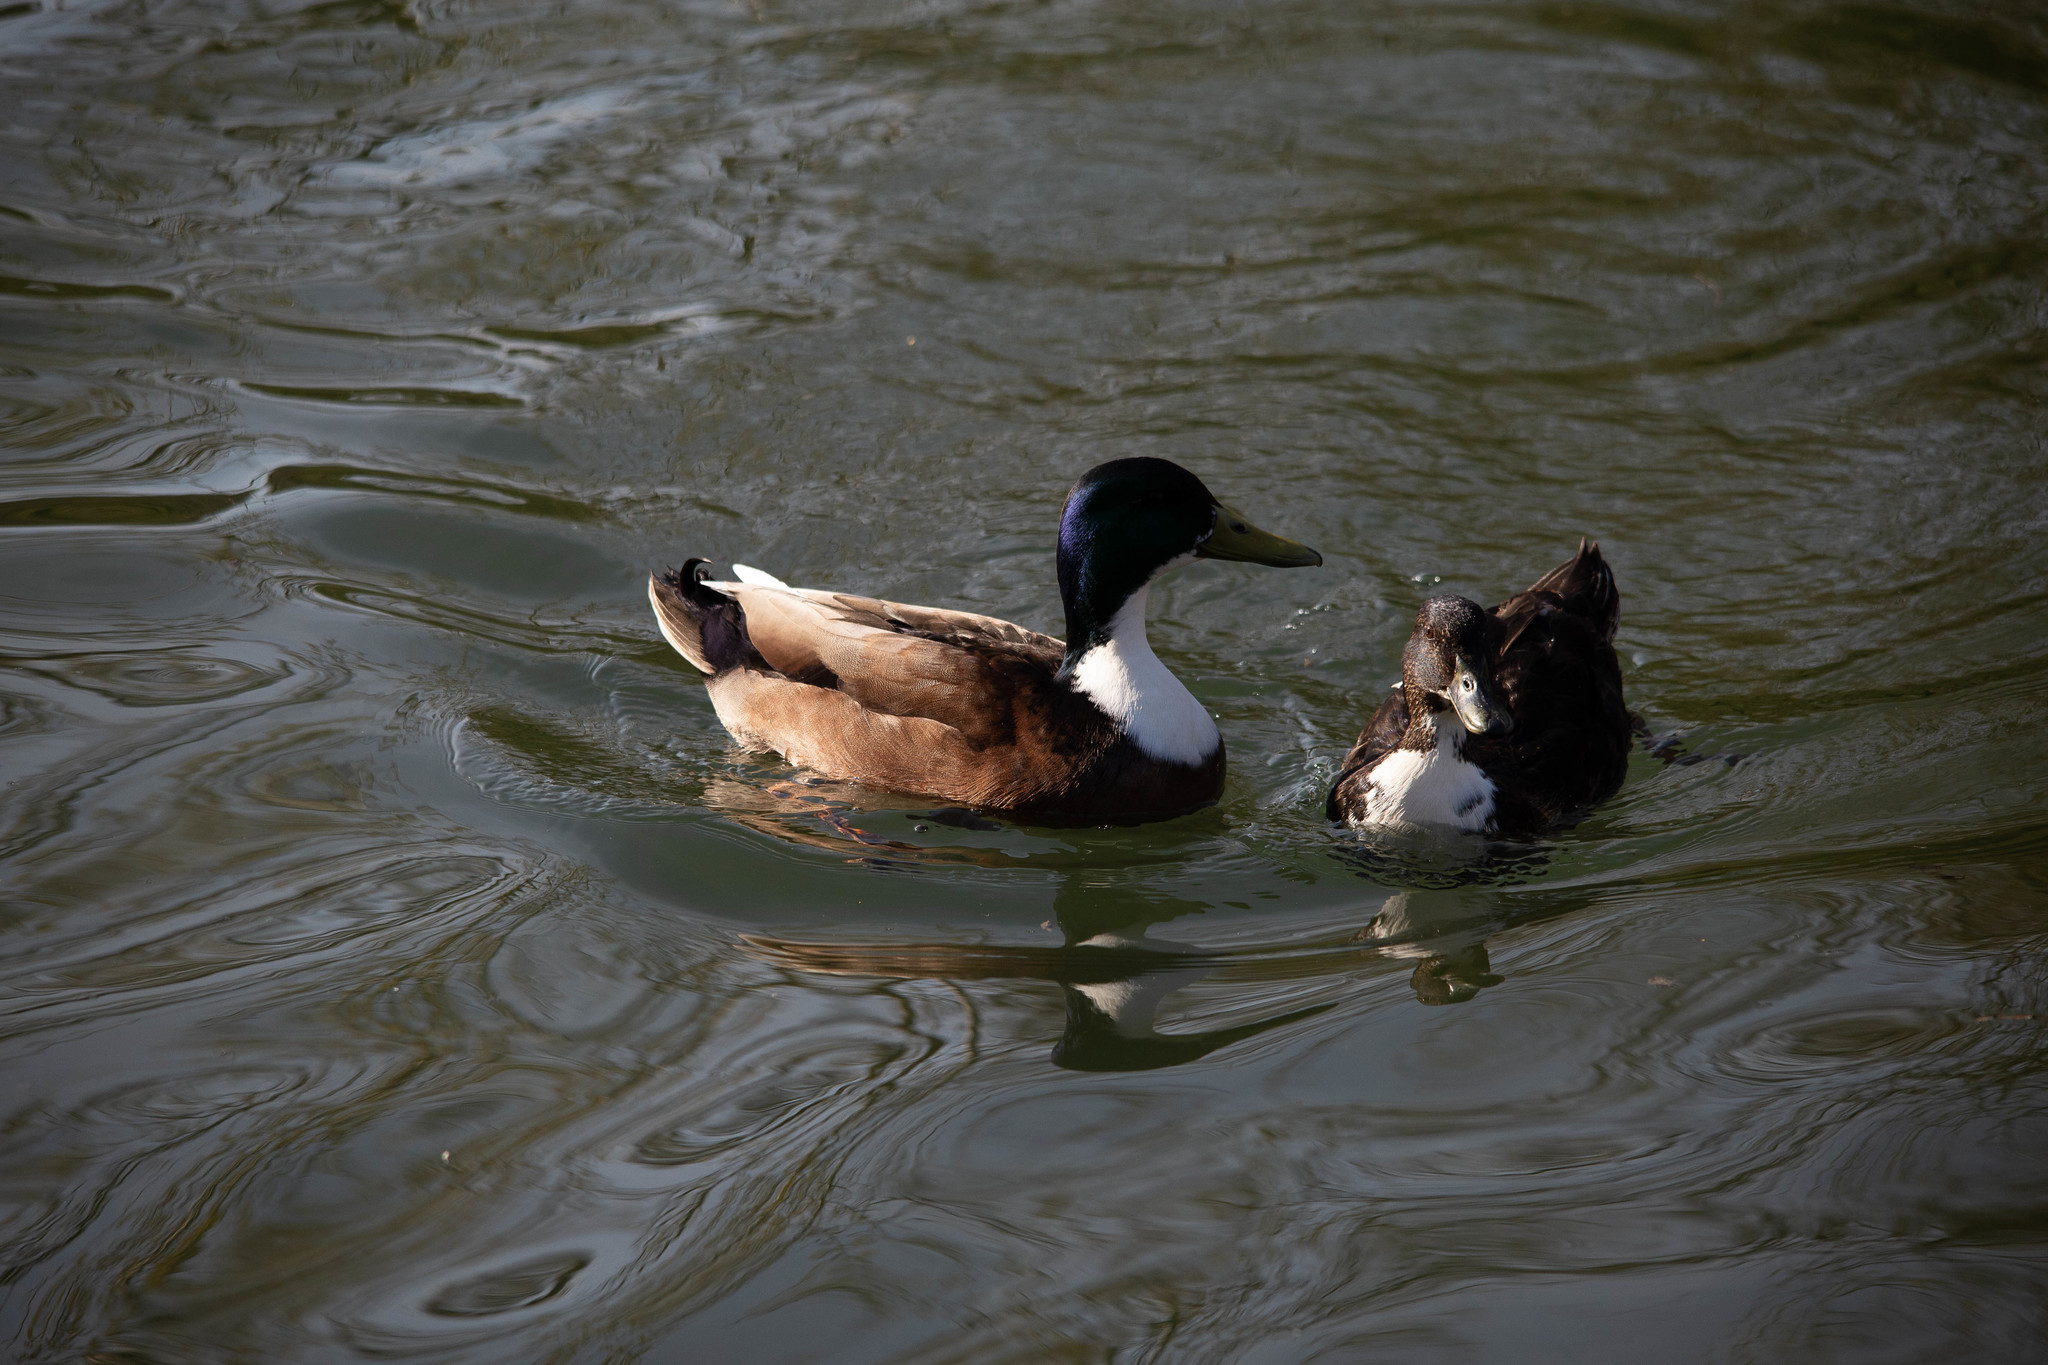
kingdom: Animalia
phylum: Chordata
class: Aves
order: Anseriformes
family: Anatidae
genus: Anas
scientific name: Anas platyrhynchos
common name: Mallard
